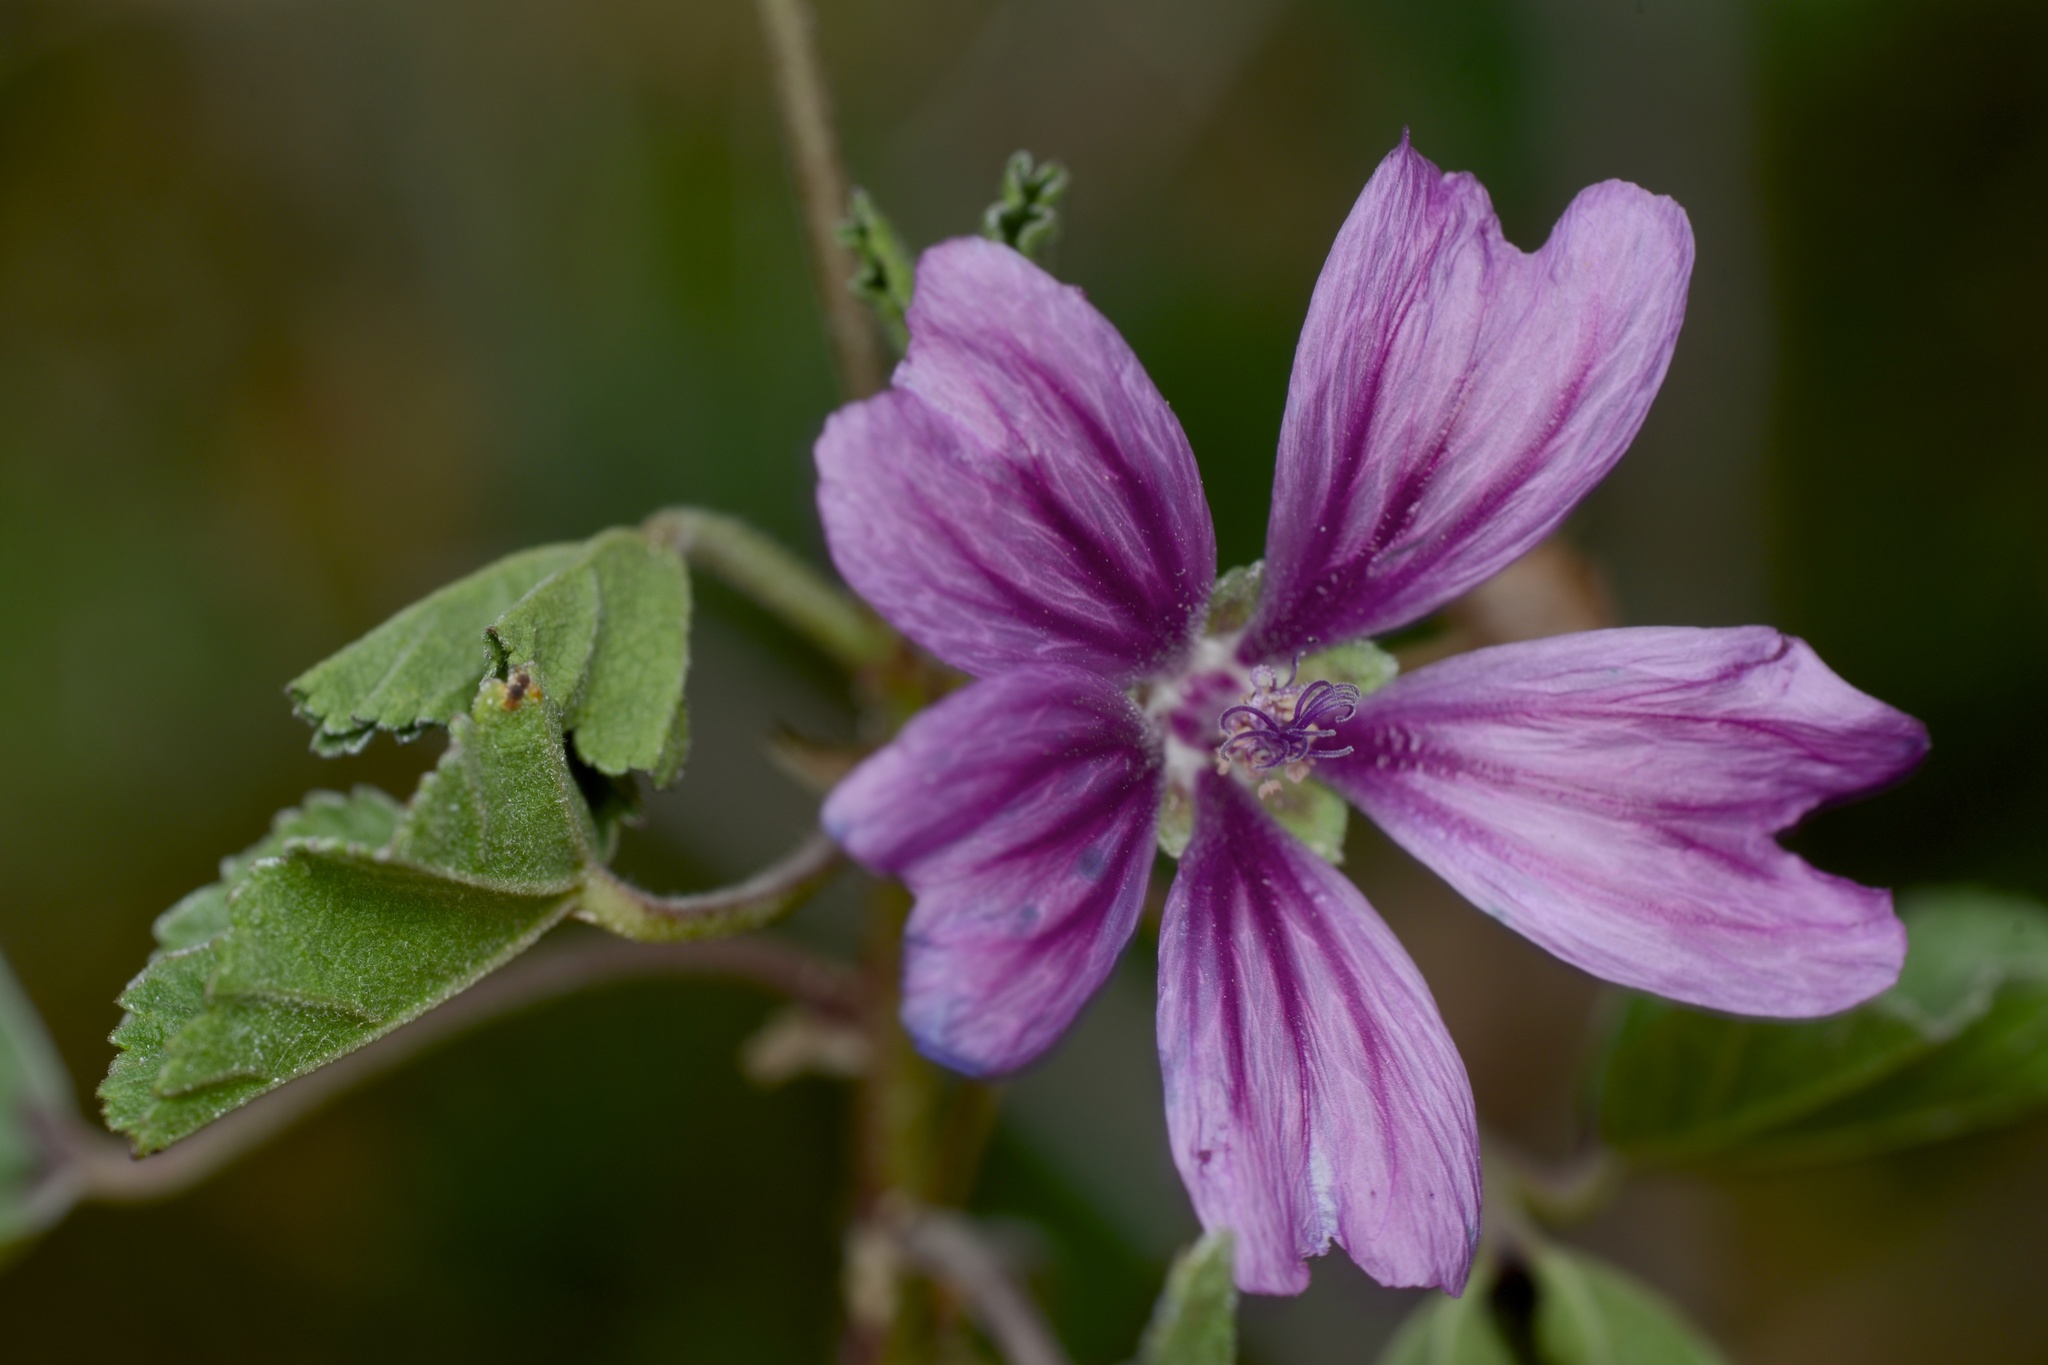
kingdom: Plantae
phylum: Tracheophyta
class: Magnoliopsida
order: Malvales
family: Malvaceae
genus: Malva
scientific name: Malva sylvestris
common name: Common mallow
